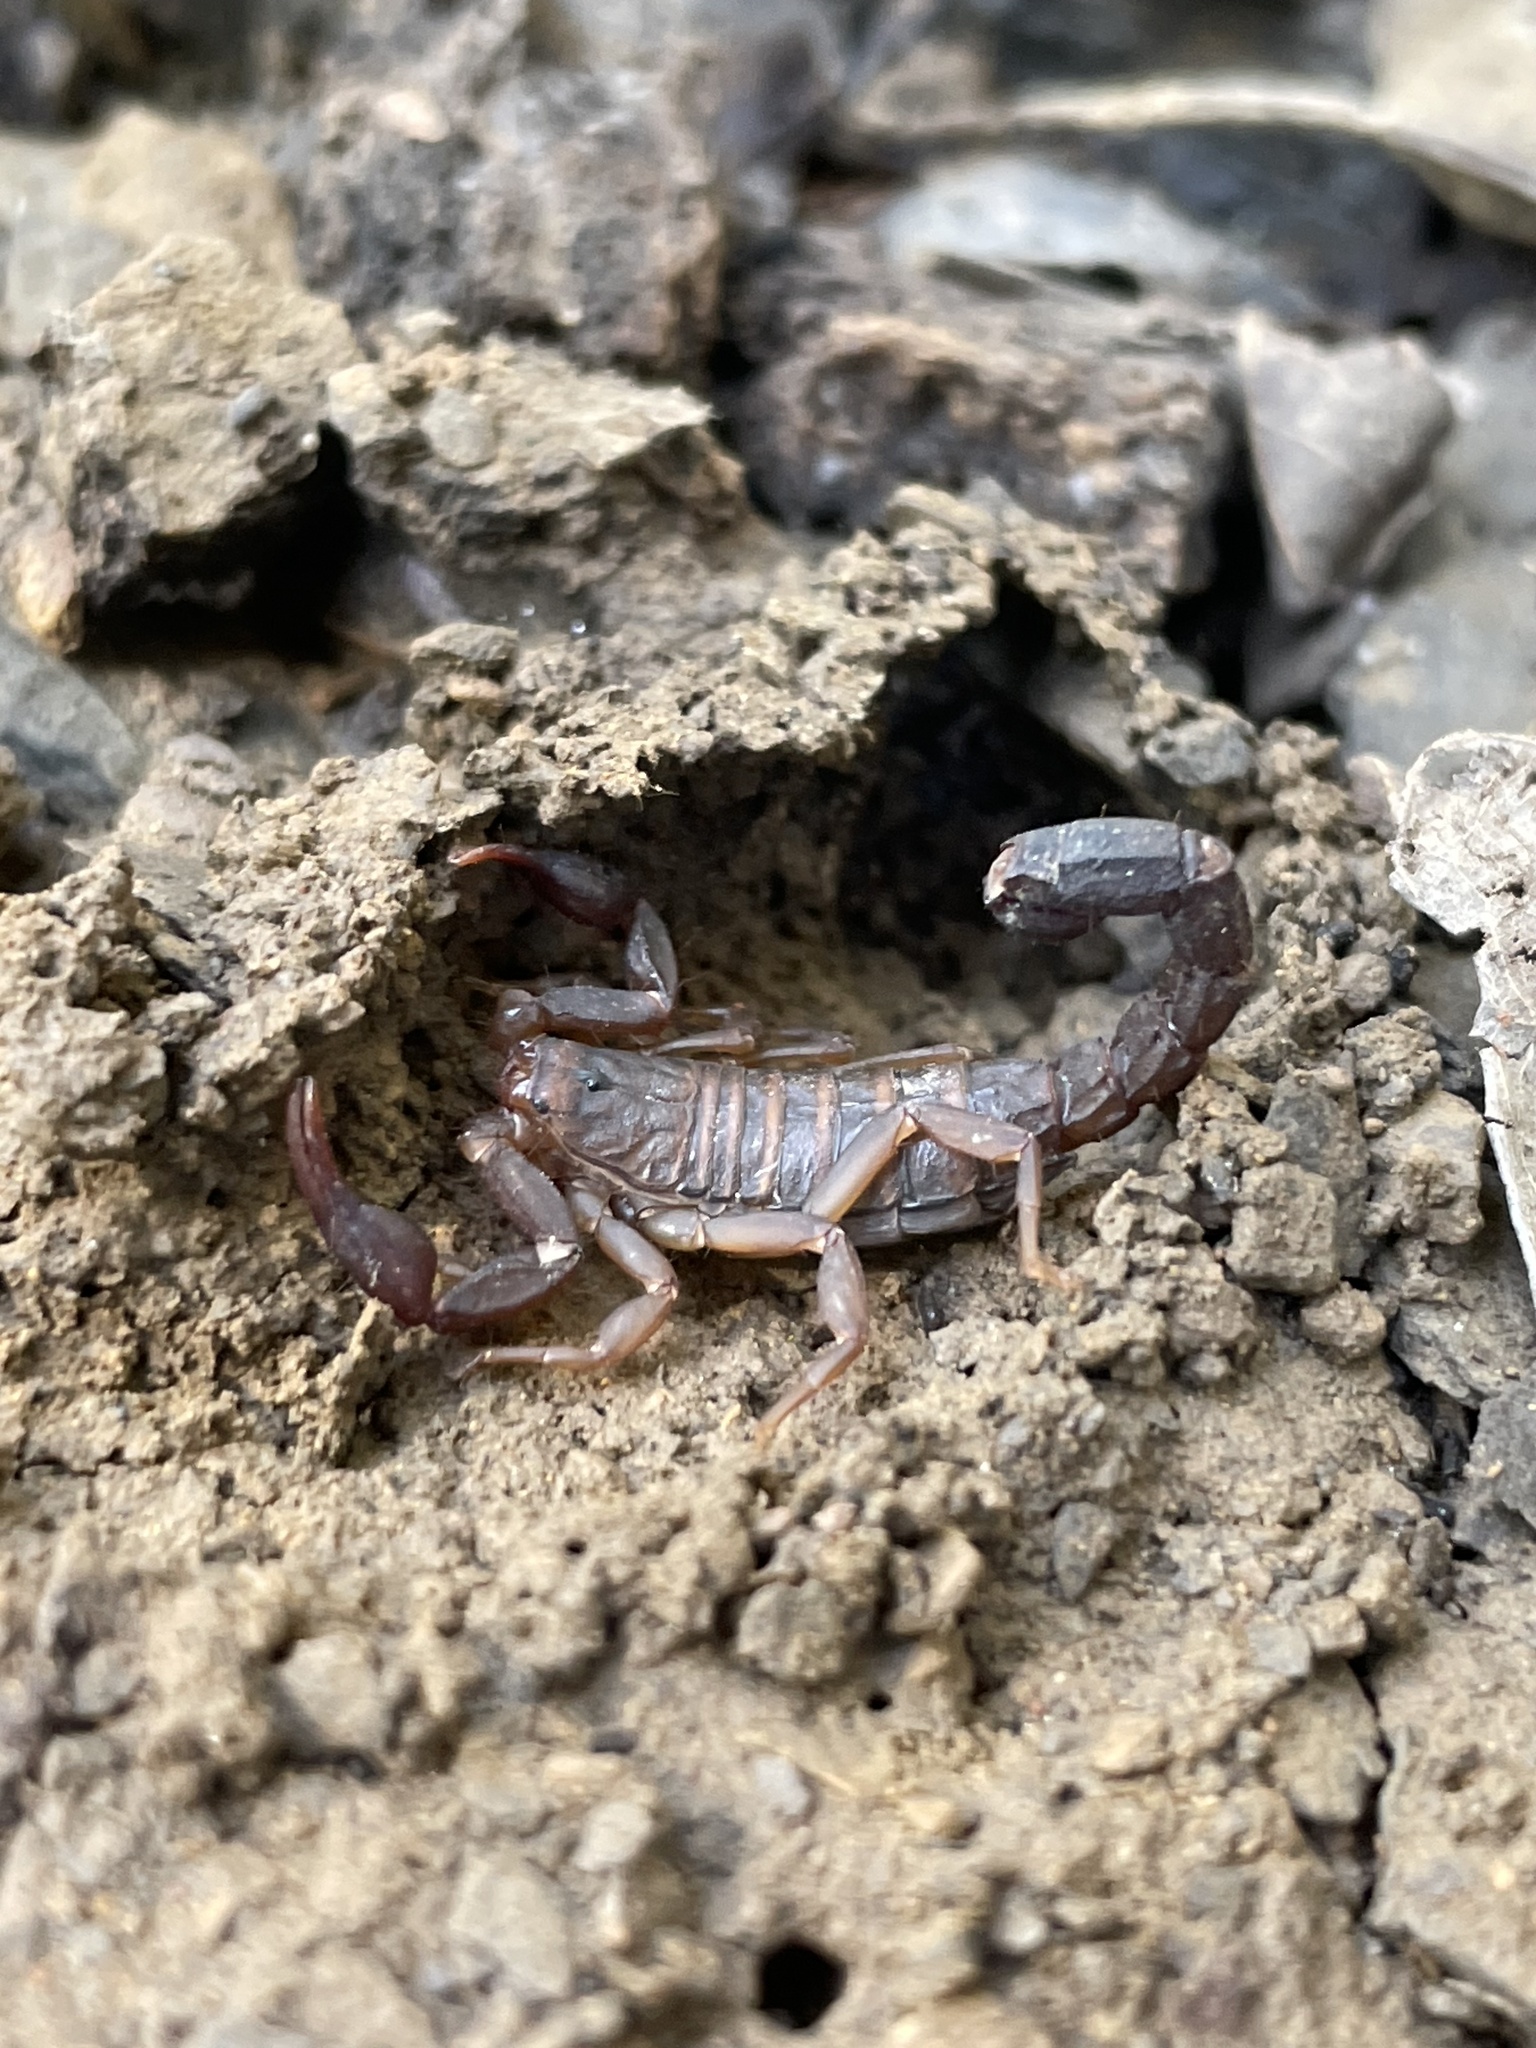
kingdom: Animalia
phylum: Arthropoda
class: Arachnida
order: Scorpiones
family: Vaejovidae
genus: Vaejovis
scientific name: Vaejovis carolinianus
